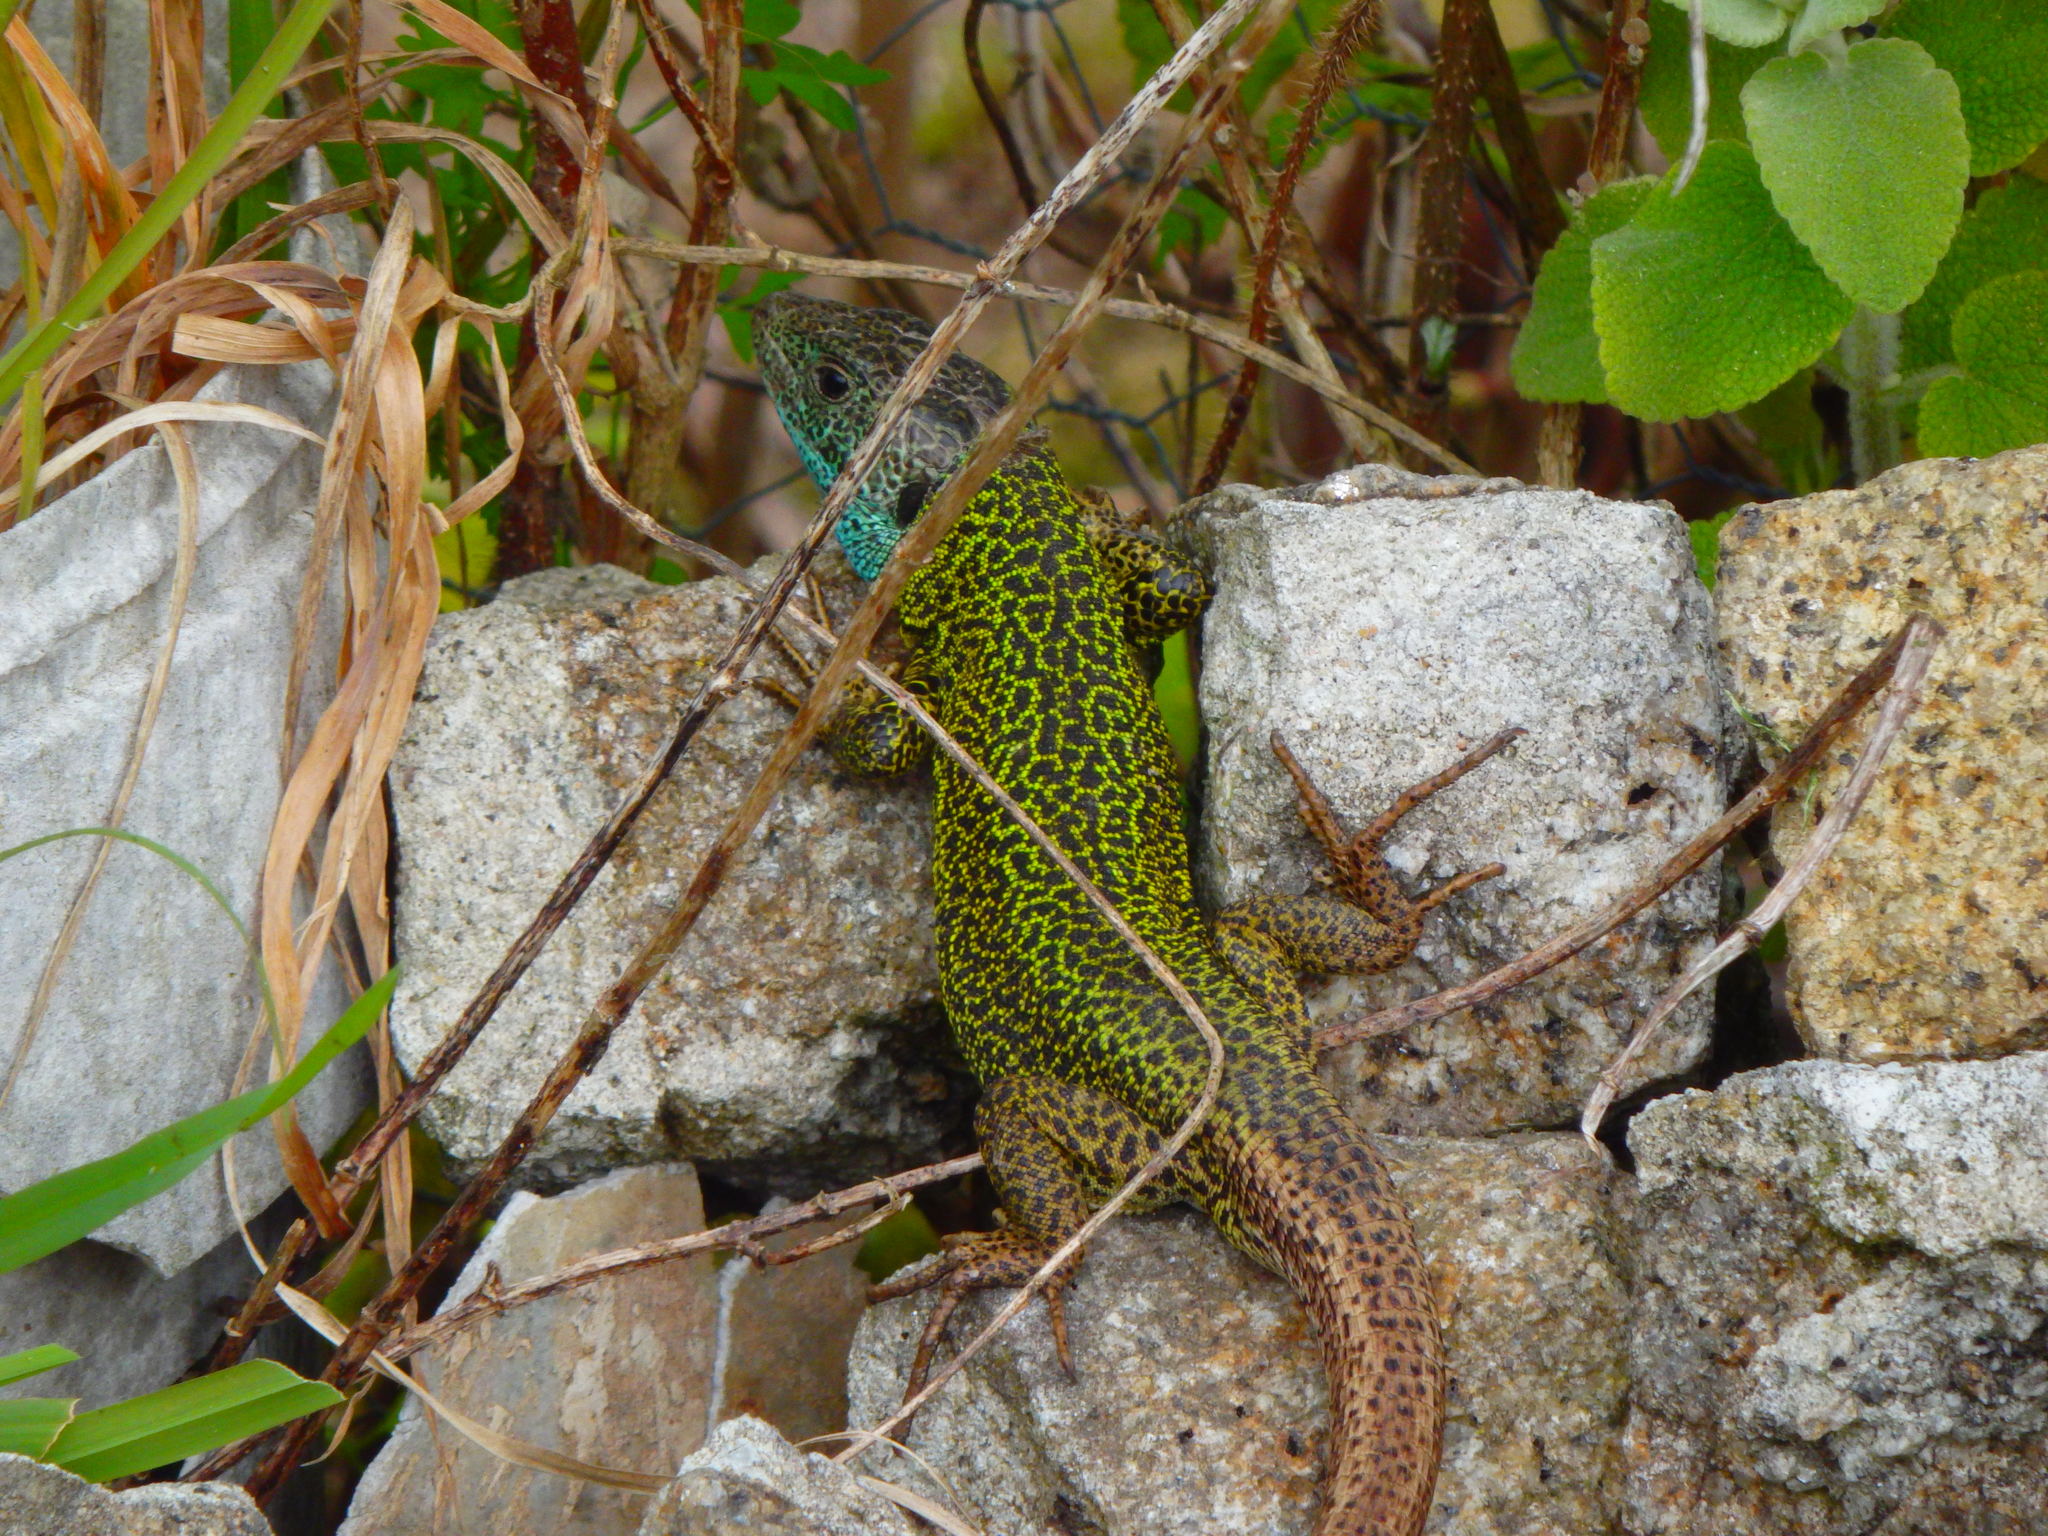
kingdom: Animalia
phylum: Chordata
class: Squamata
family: Lacertidae
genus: Lacerta
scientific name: Lacerta schreiberi
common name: Iberian emerald lizard
